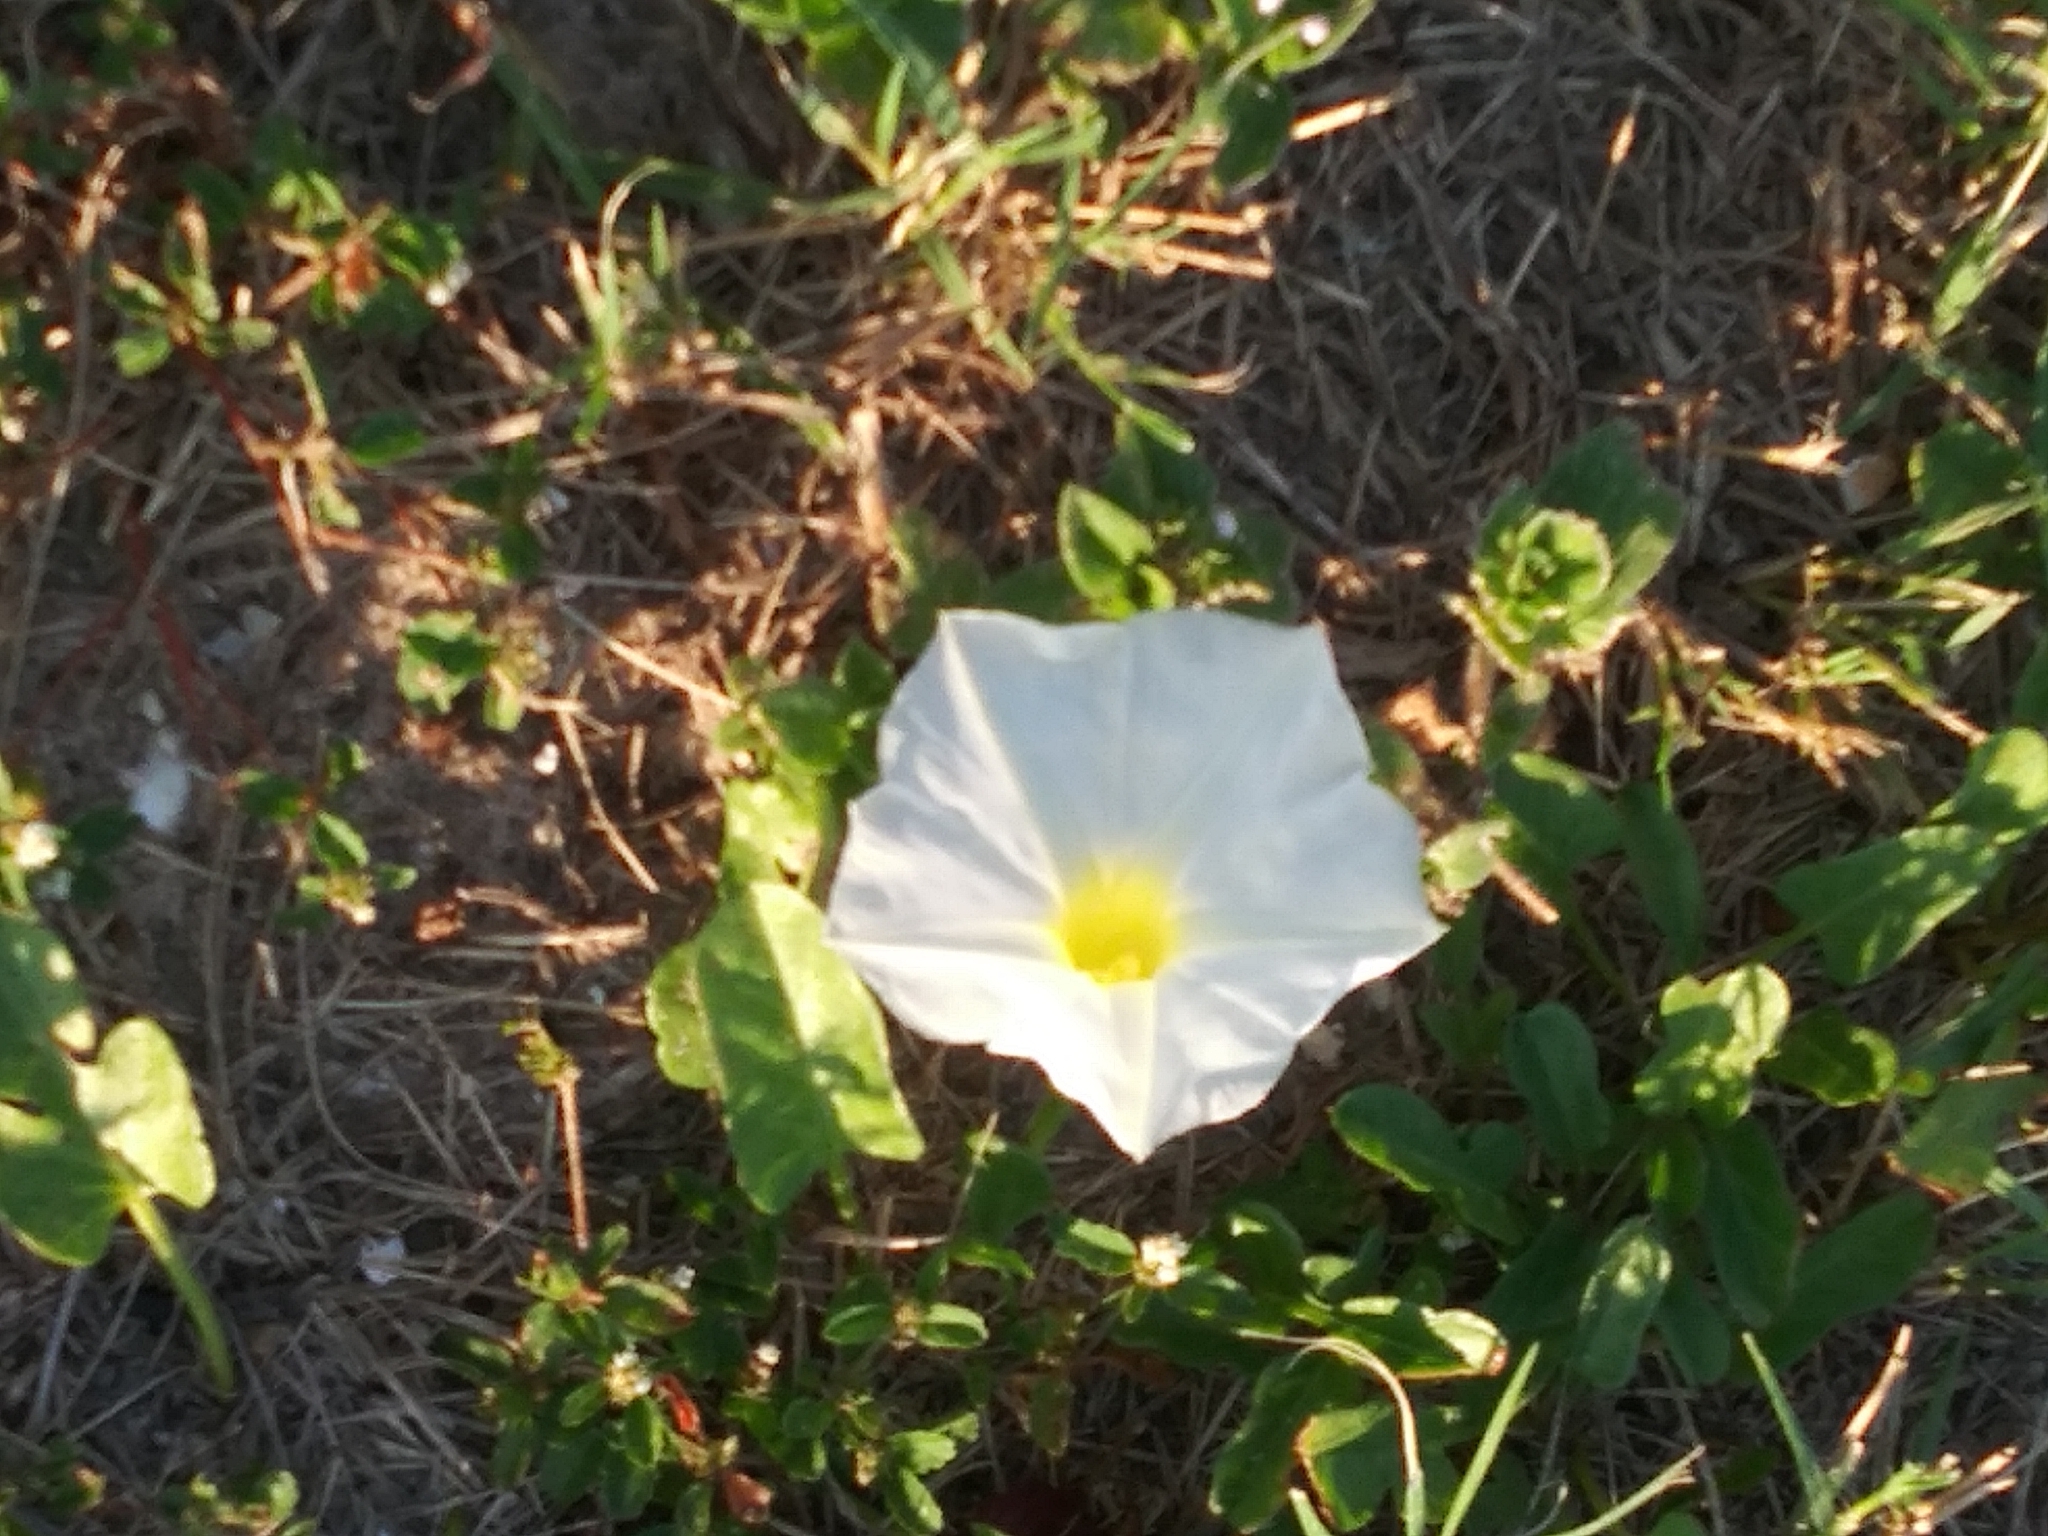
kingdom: Plantae
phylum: Tracheophyta
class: Magnoliopsida
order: Solanales
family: Convolvulaceae
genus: Ipomoea
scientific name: Ipomoea imperati
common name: Fiddle-leaf morning-glory
